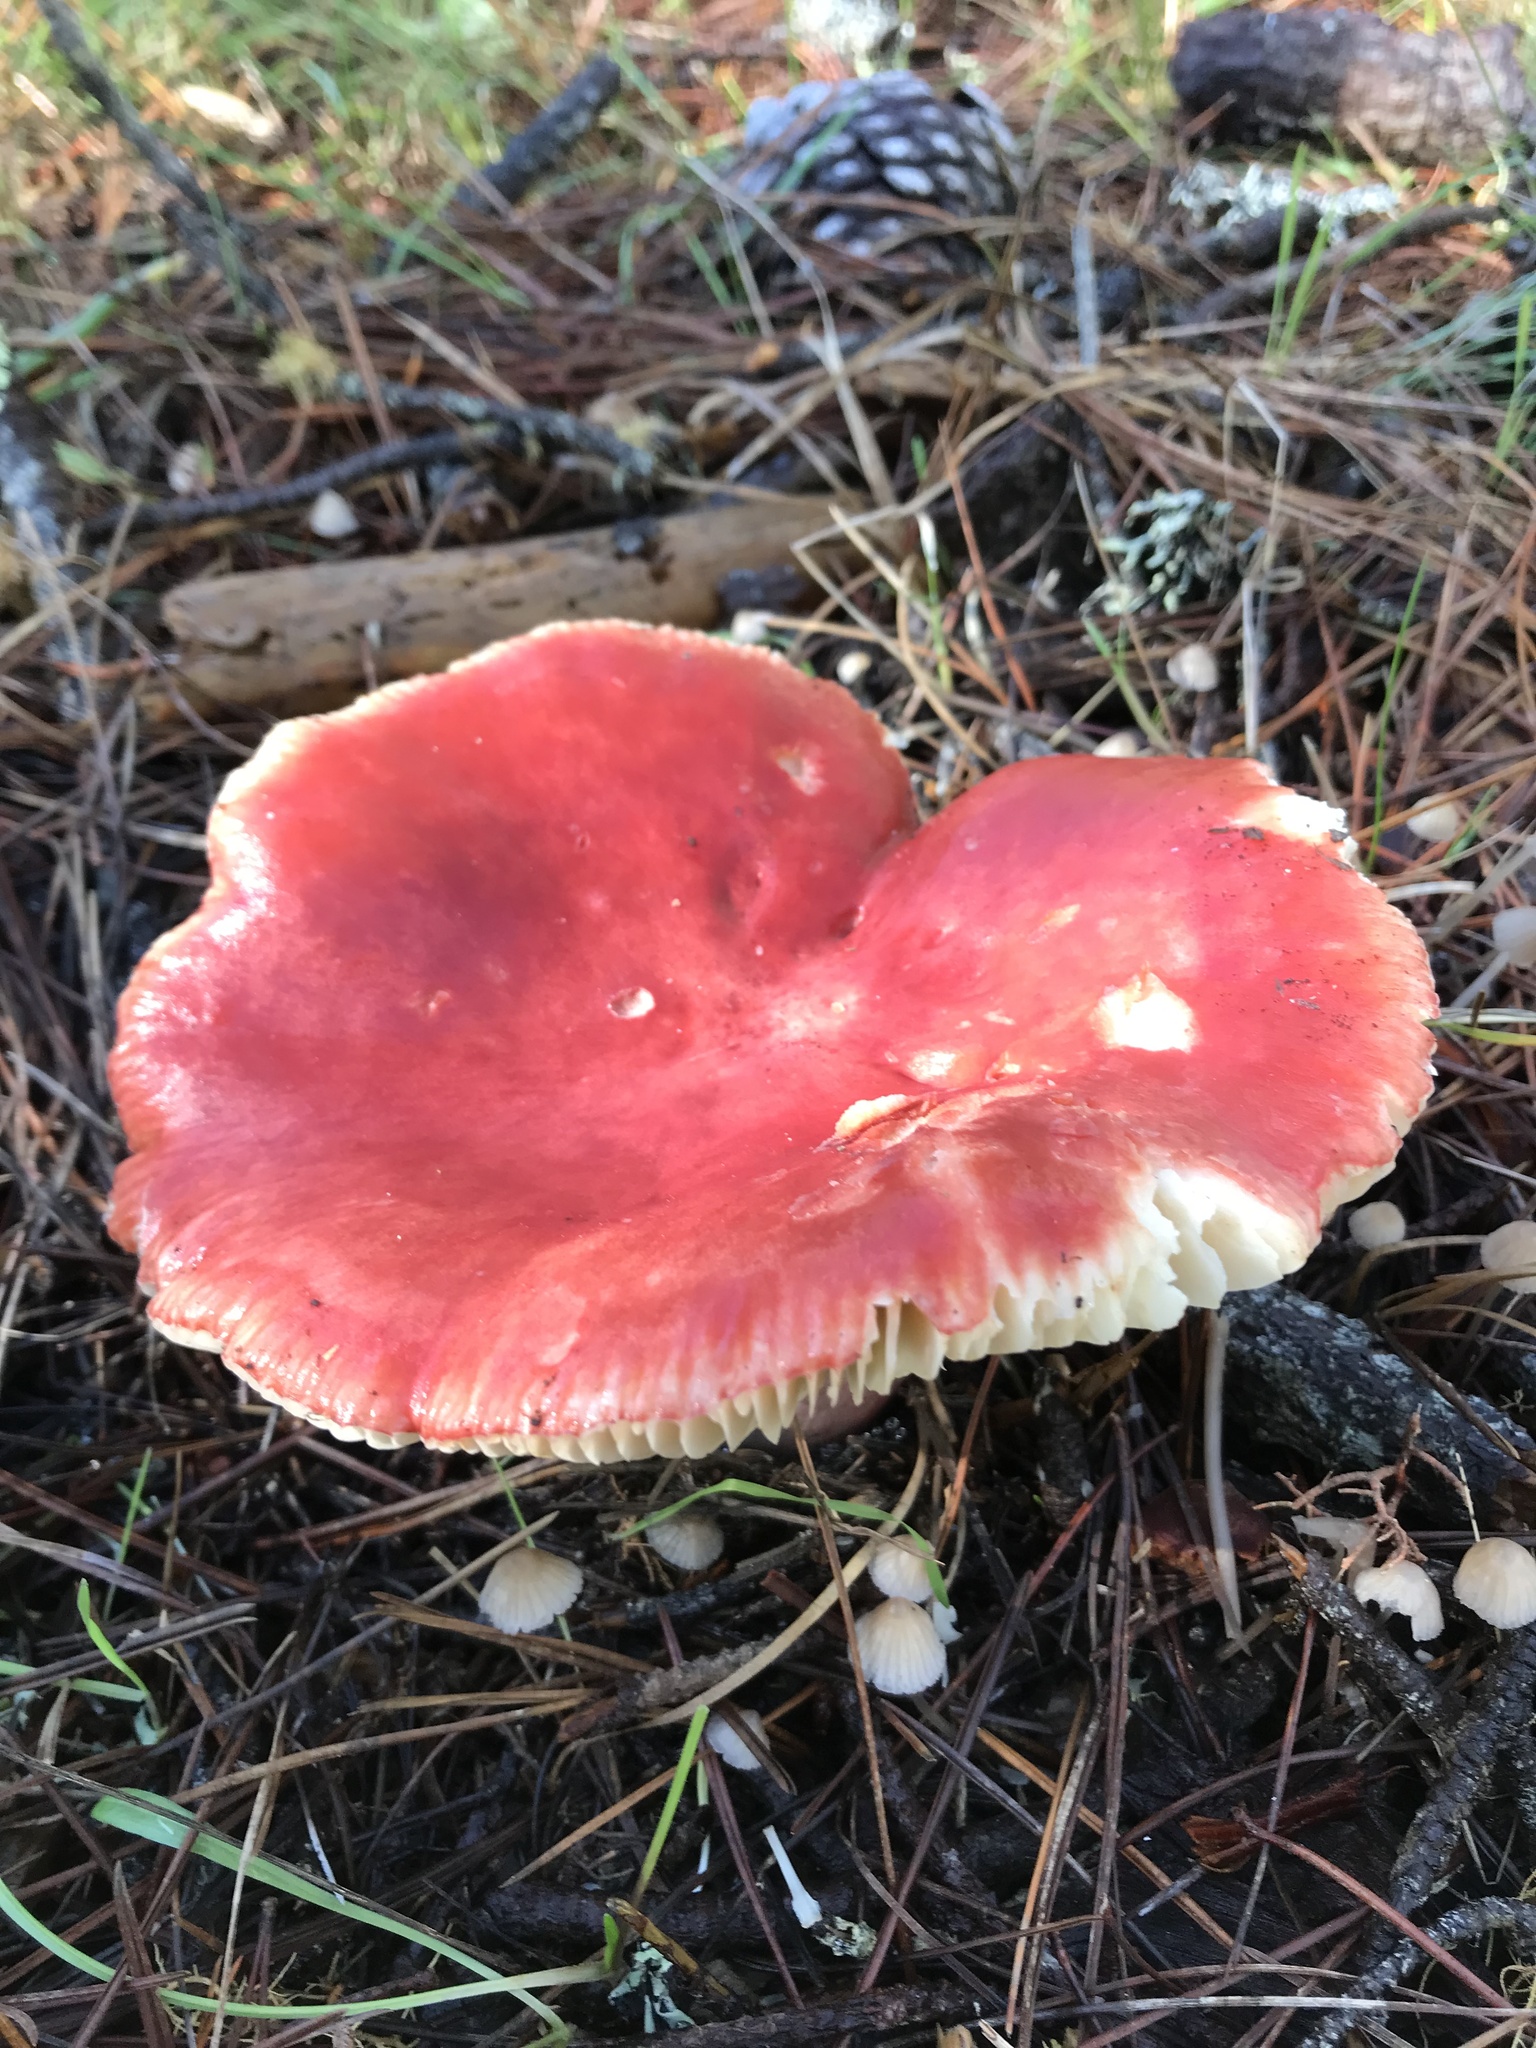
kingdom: Fungi
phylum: Basidiomycota
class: Agaricomycetes
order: Russulales
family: Russulaceae
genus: Russula
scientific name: Russula rhodocephala
